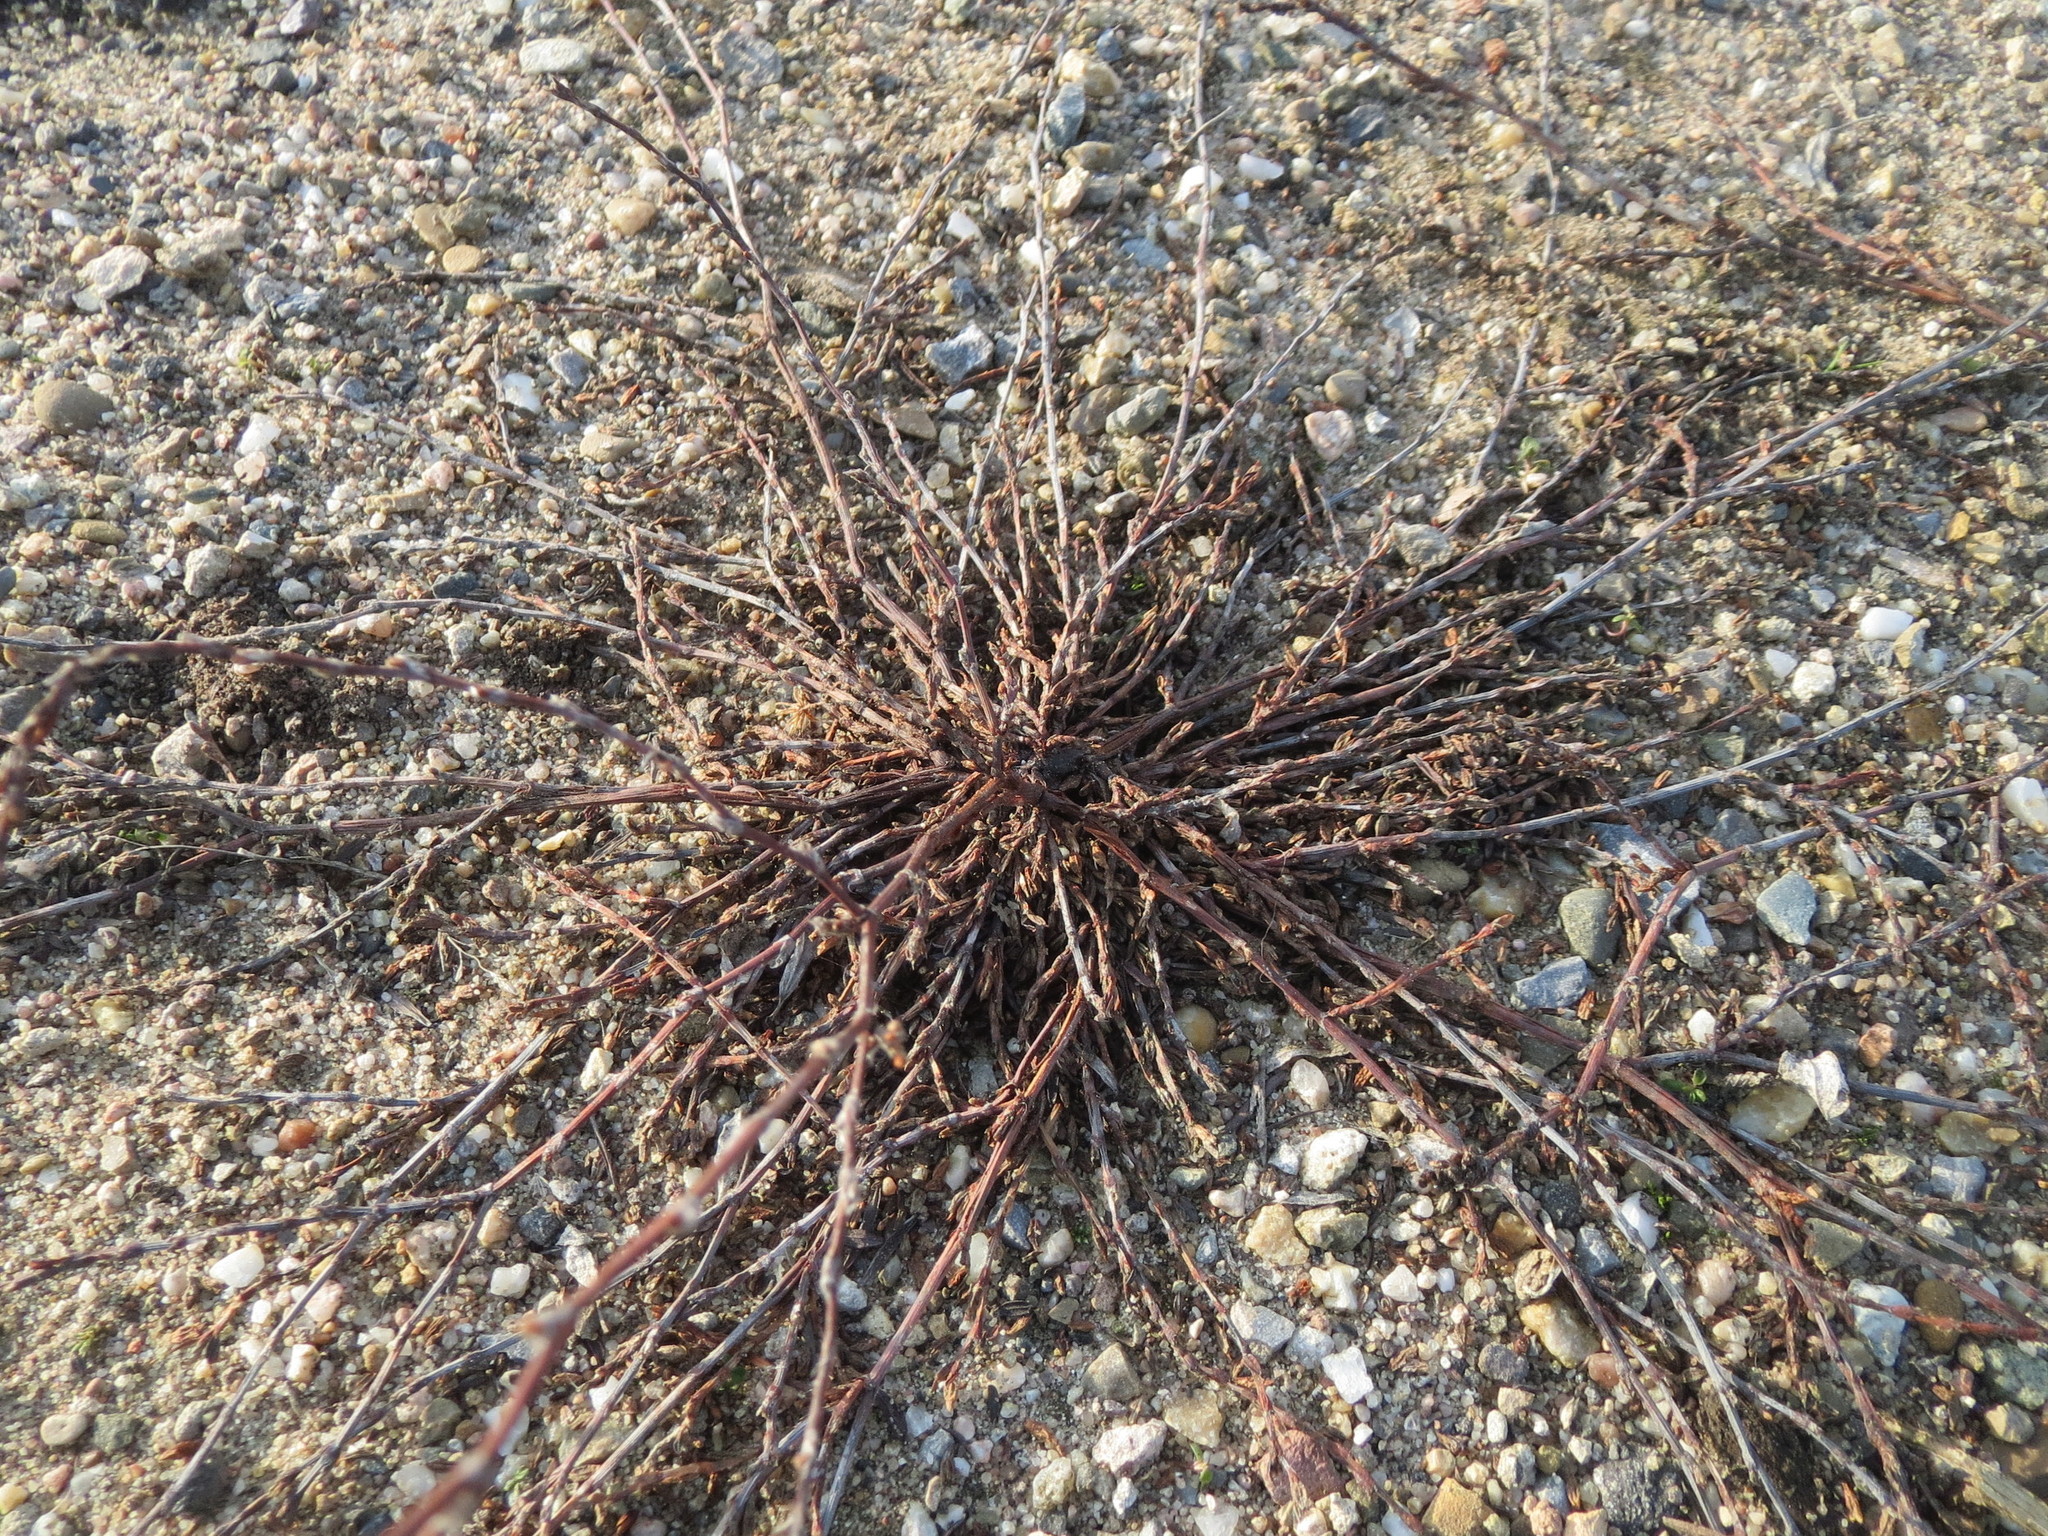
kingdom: Plantae
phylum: Tracheophyta
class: Magnoliopsida
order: Caryophyllales
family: Polygonaceae
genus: Polygonum
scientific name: Polygonum
